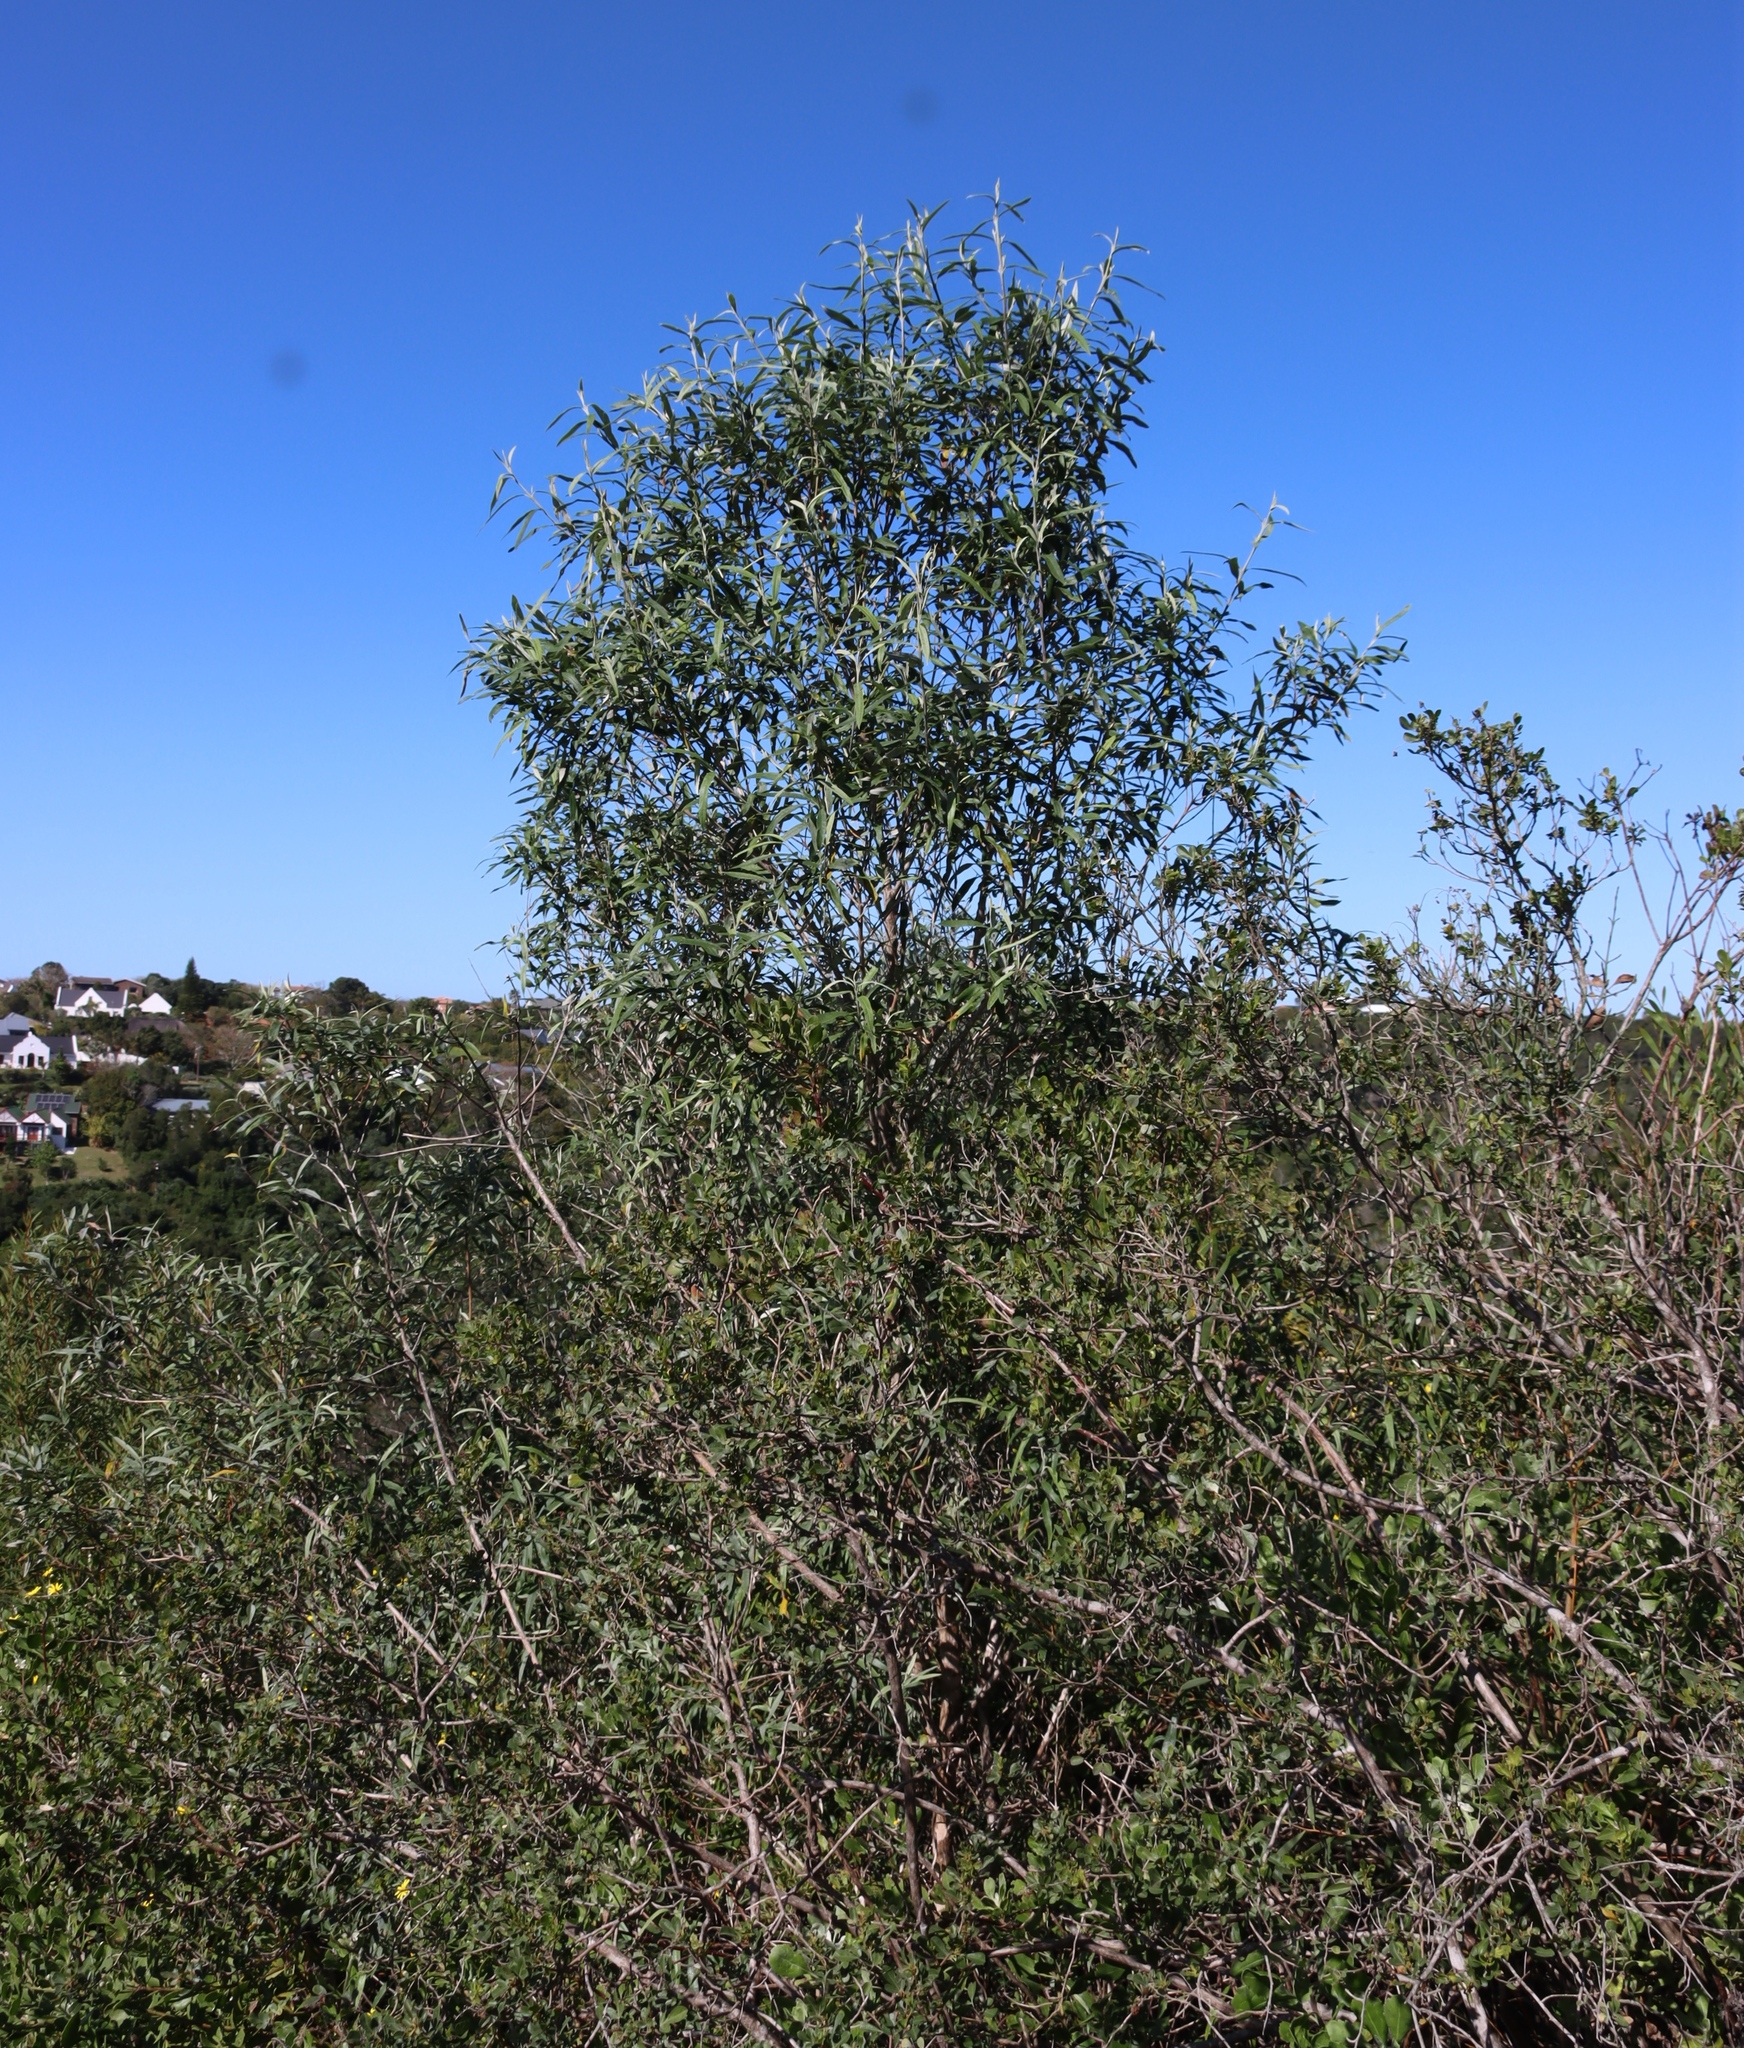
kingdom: Plantae
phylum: Tracheophyta
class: Magnoliopsida
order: Lamiales
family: Scrophulariaceae
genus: Buddleja
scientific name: Buddleja saligna
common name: False olive
